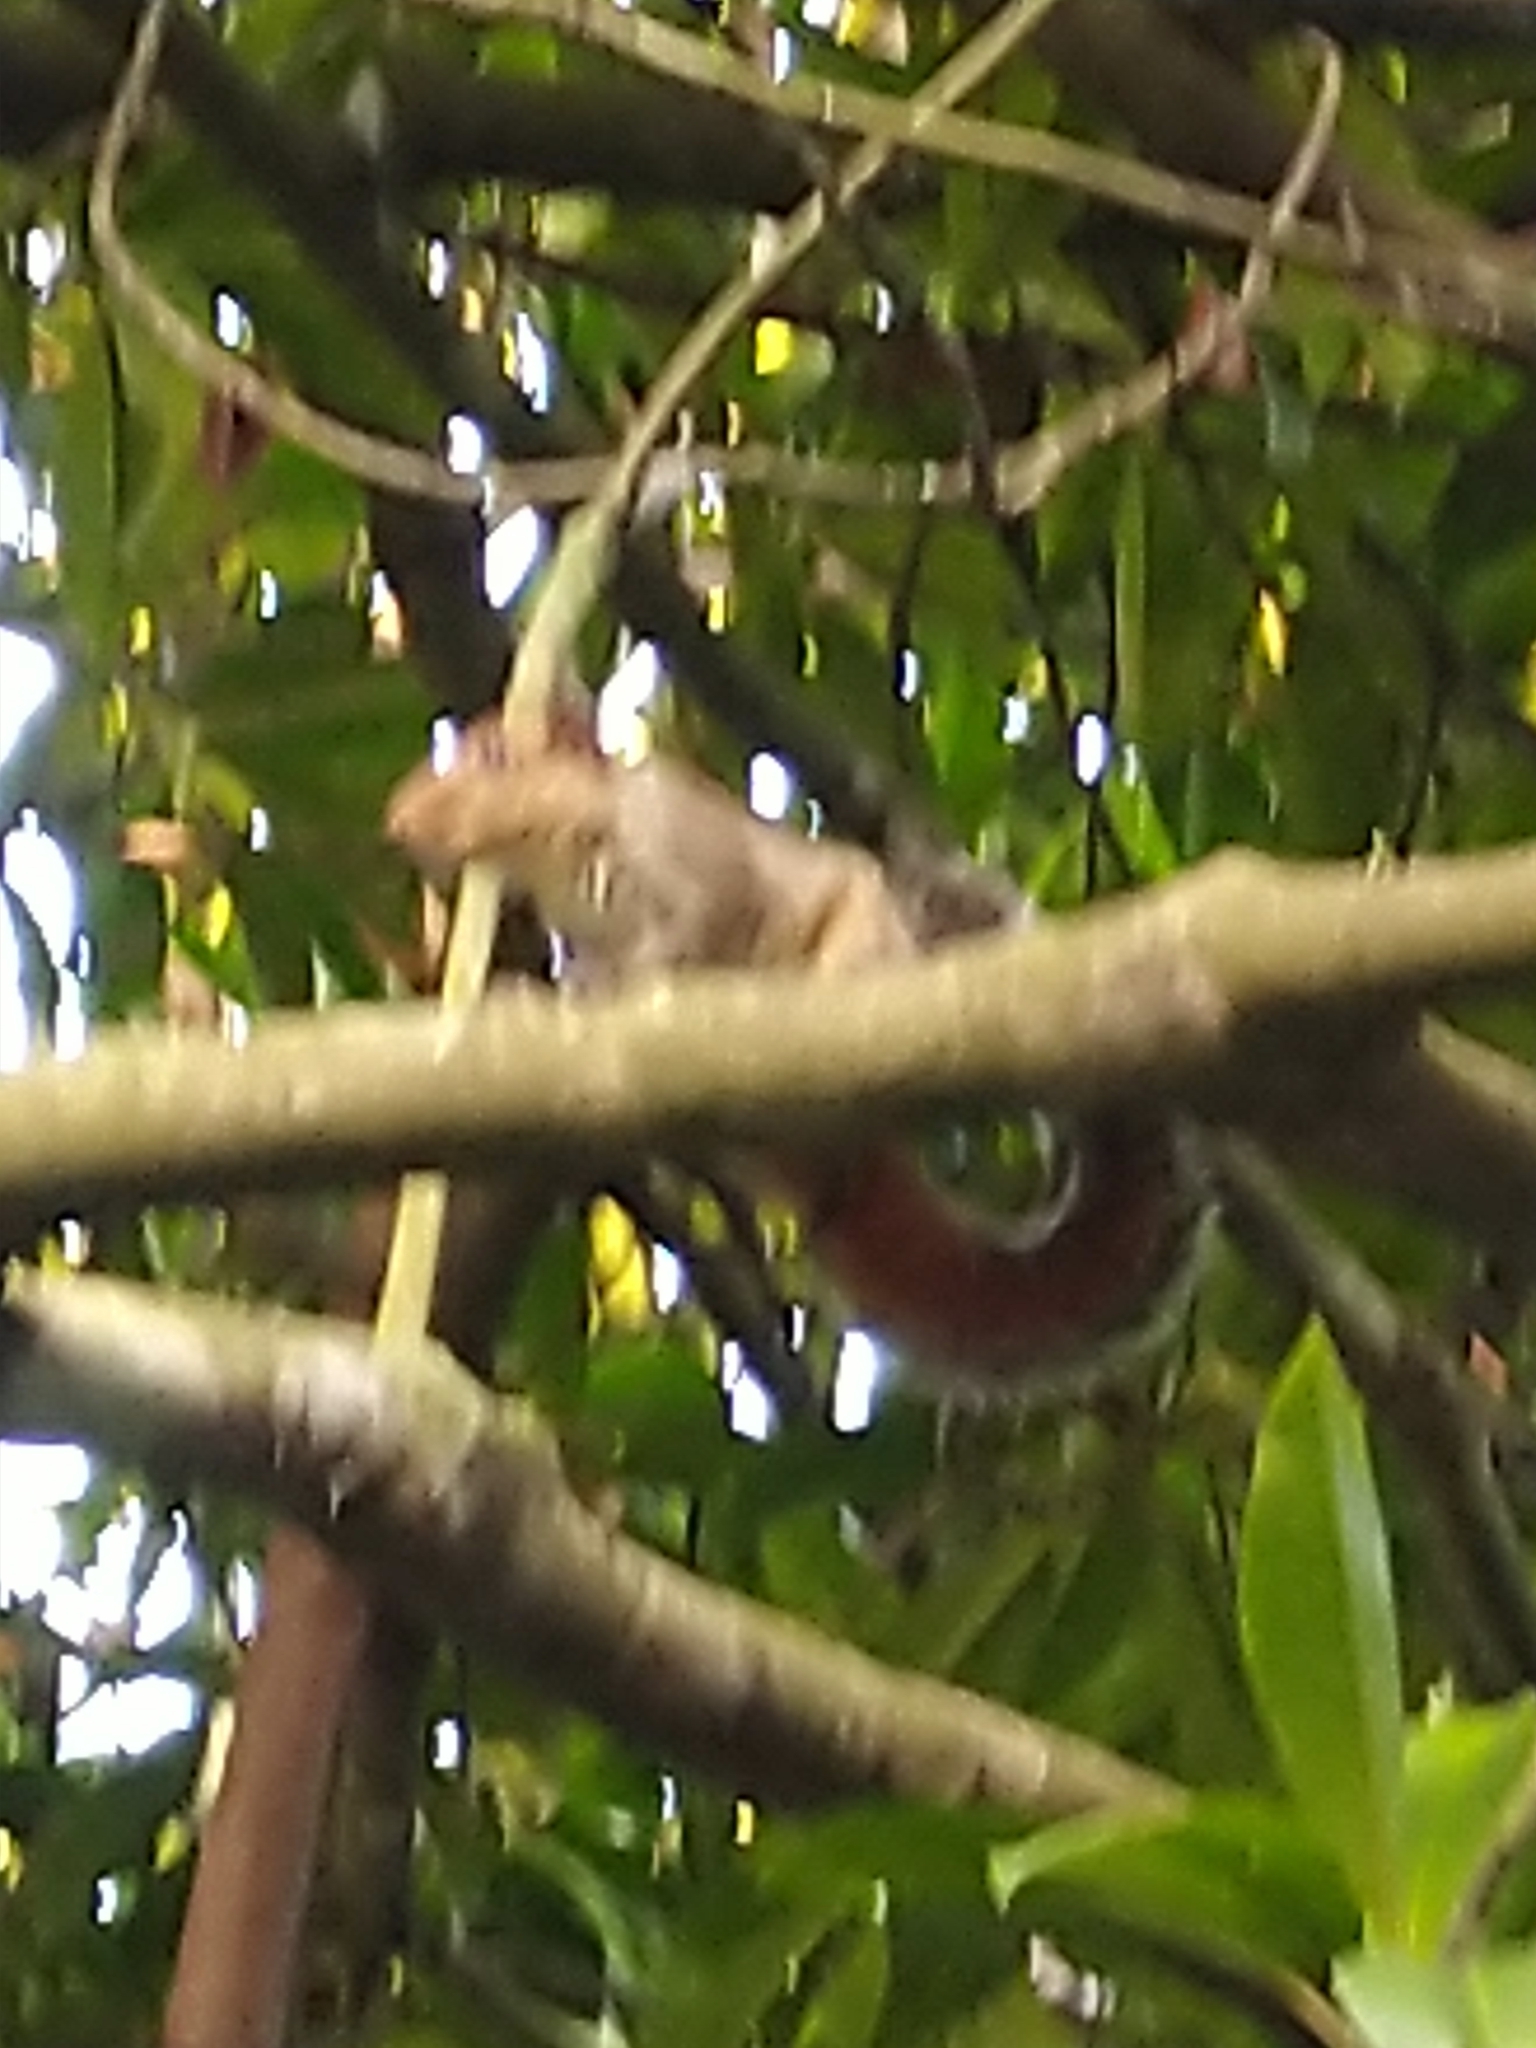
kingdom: Animalia
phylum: Chordata
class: Mammalia
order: Rodentia
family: Sciuridae
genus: Funambulus
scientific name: Funambulus tristriatus
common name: Jungle palm squirrel
